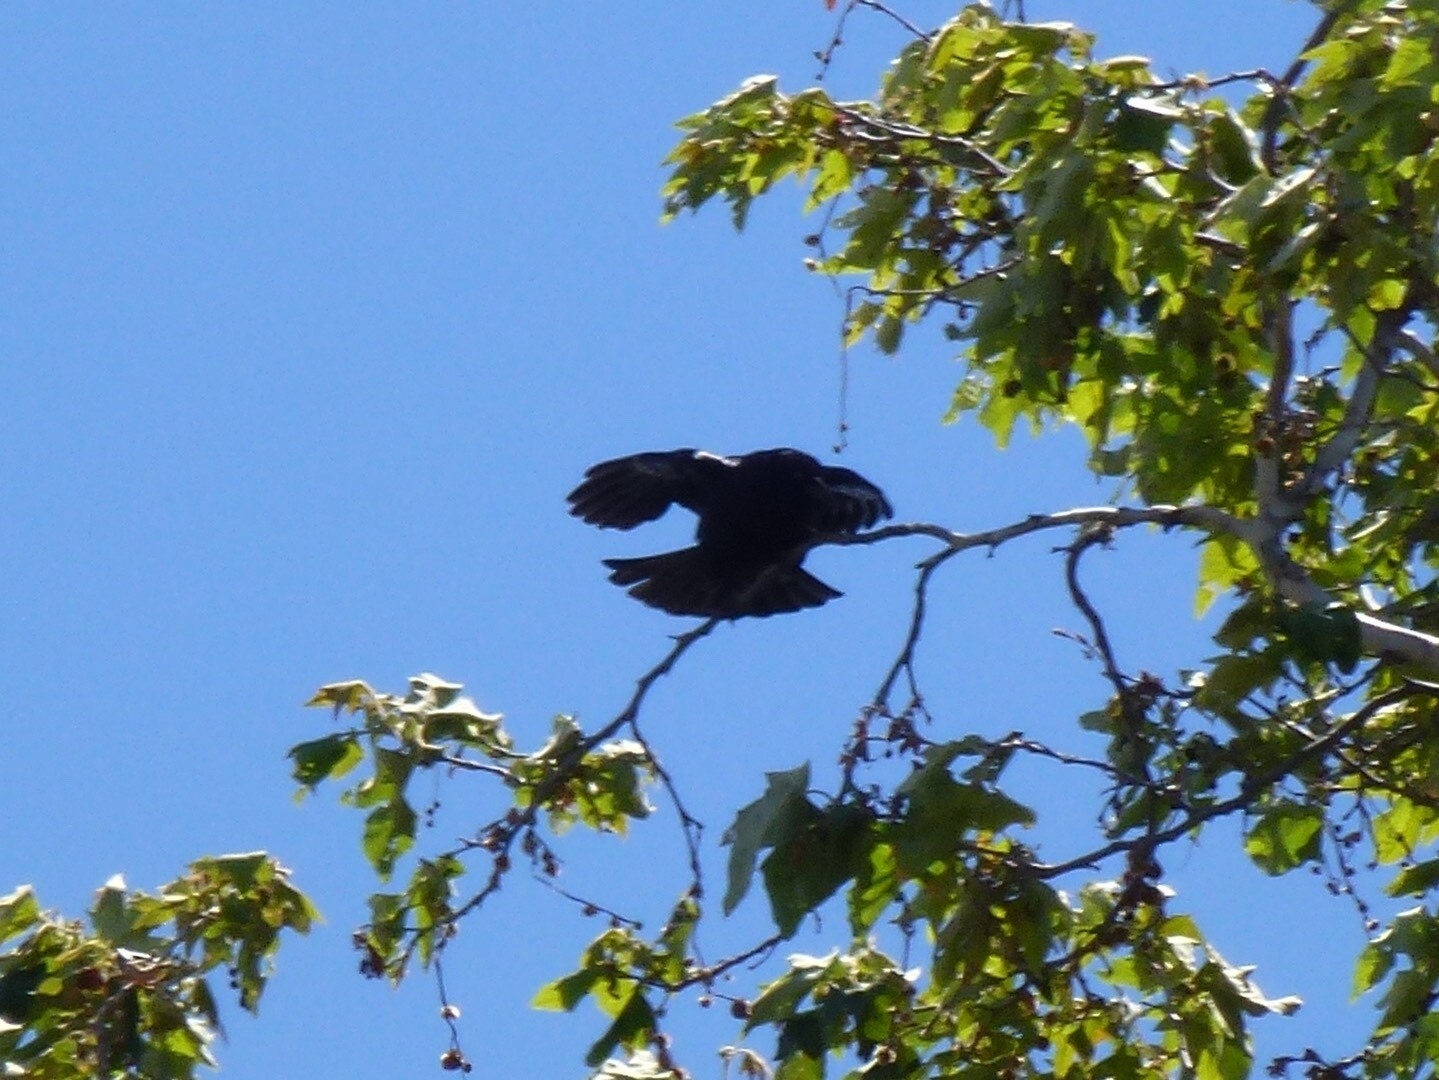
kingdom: Animalia
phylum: Chordata
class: Aves
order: Passeriformes
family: Corvidae
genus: Corvus
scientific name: Corvus brachyrhynchos
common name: American crow
